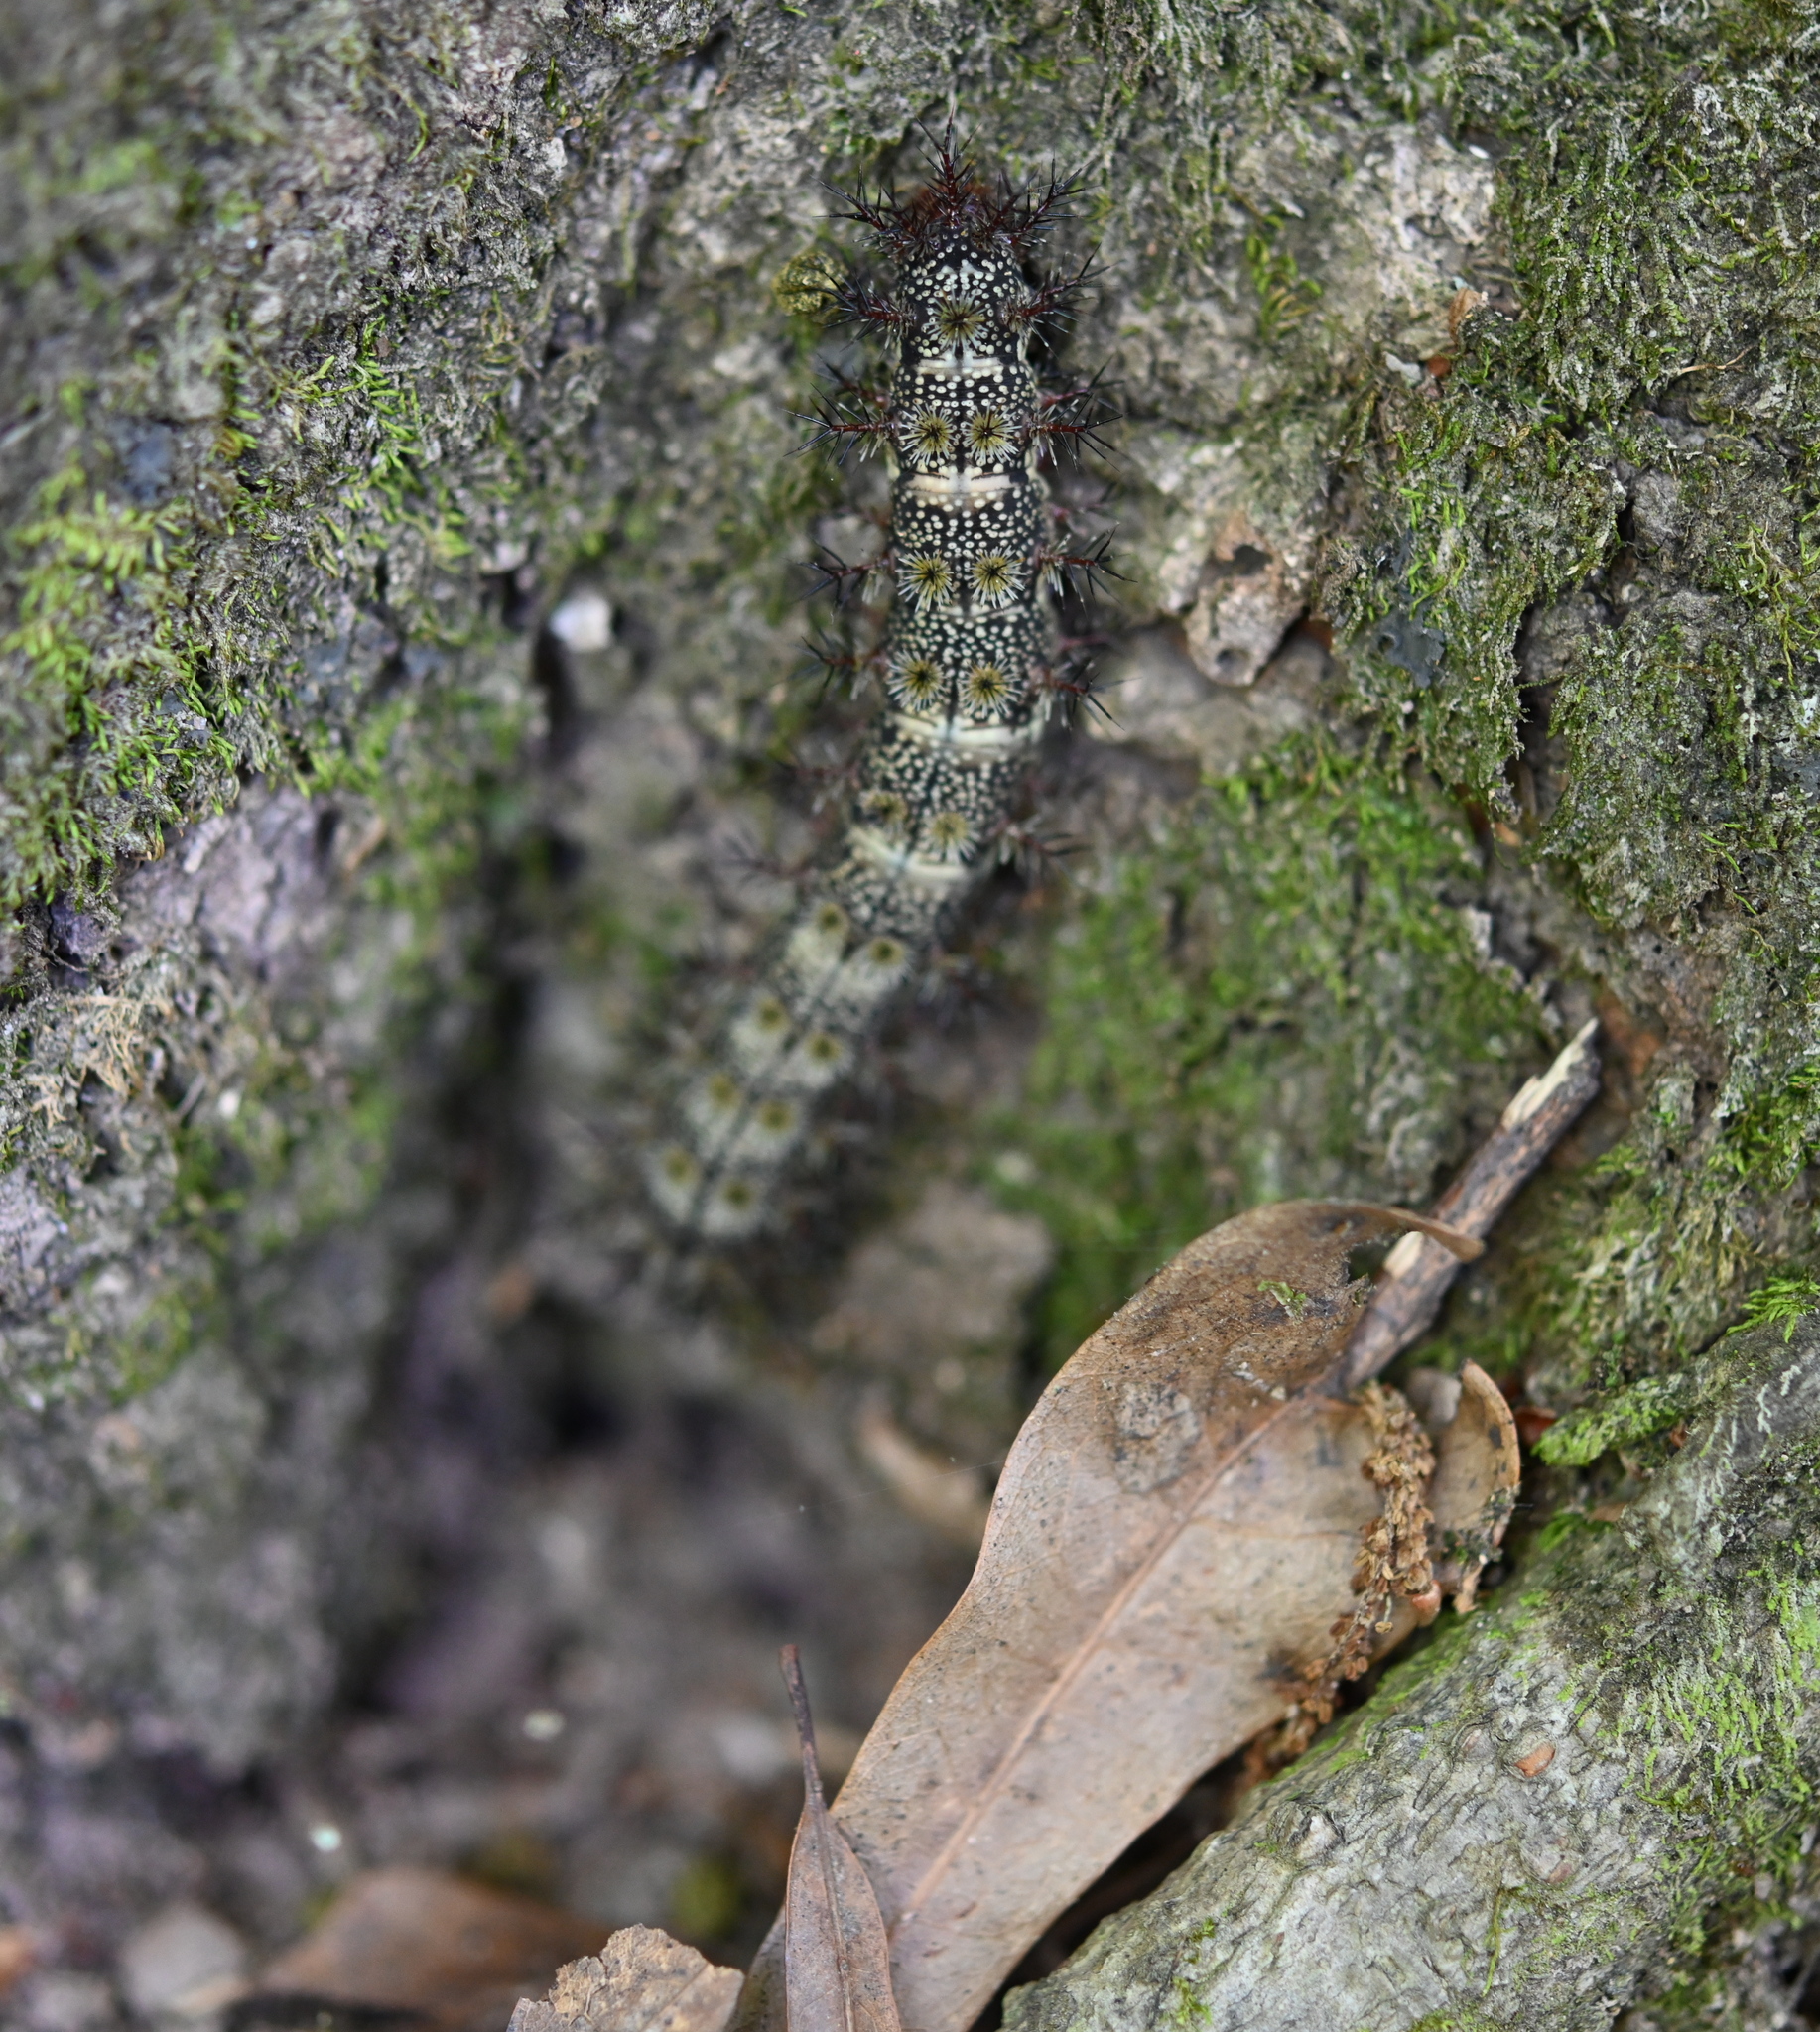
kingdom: Animalia
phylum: Arthropoda
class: Insecta
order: Lepidoptera
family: Saturniidae
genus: Hemileuca
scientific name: Hemileuca maia
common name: Eastern buckmoth
